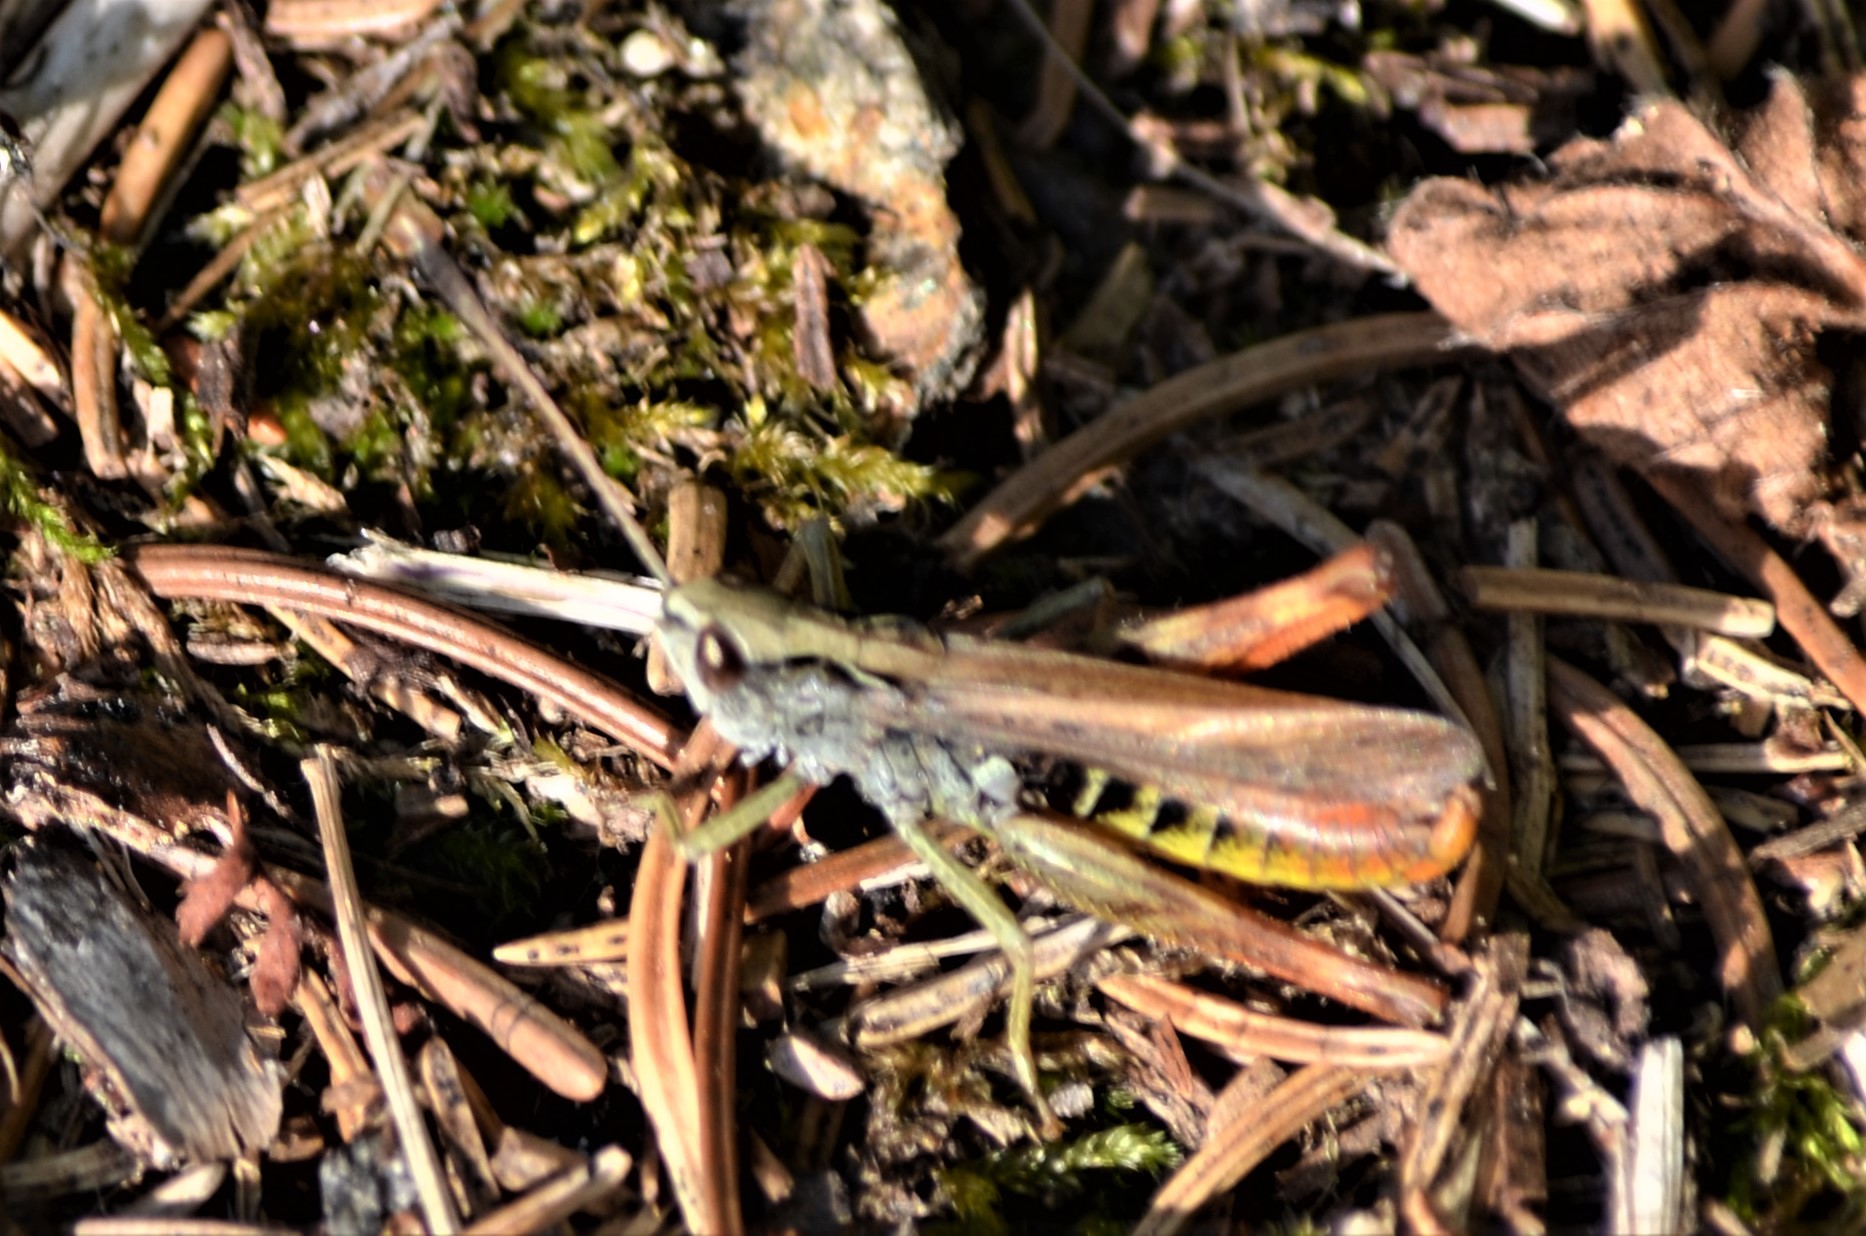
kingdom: Animalia
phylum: Arthropoda
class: Insecta
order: Orthoptera
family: Acrididae
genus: Gomphocerippus
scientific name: Gomphocerippus rufus
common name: Rufous grasshopper
